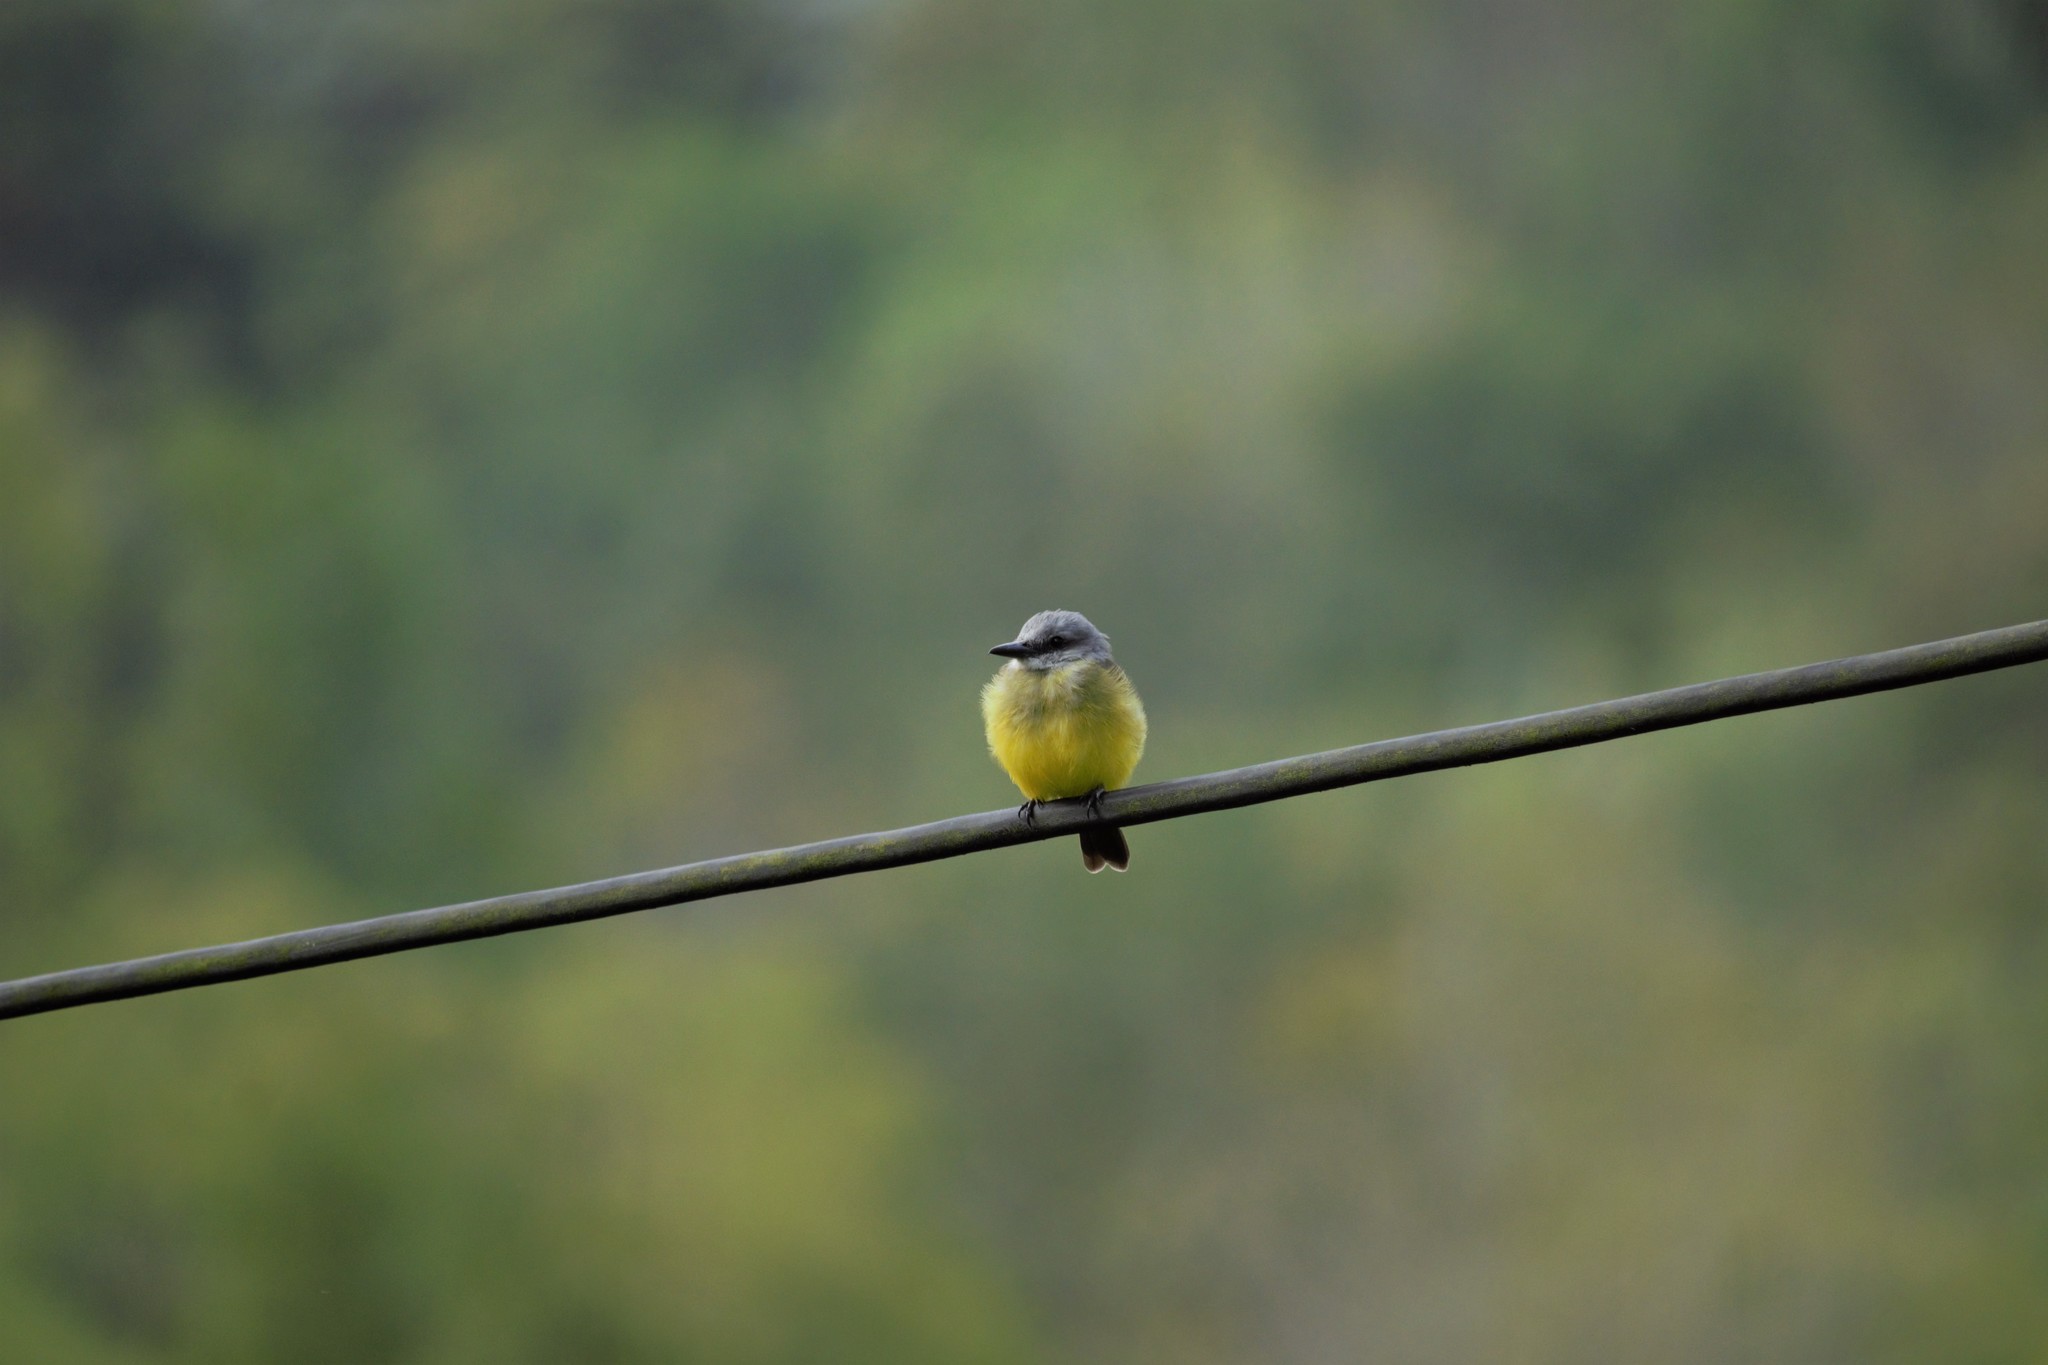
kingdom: Animalia
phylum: Chordata
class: Aves
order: Passeriformes
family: Tyrannidae
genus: Tyrannus
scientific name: Tyrannus melancholicus
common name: Tropical kingbird
